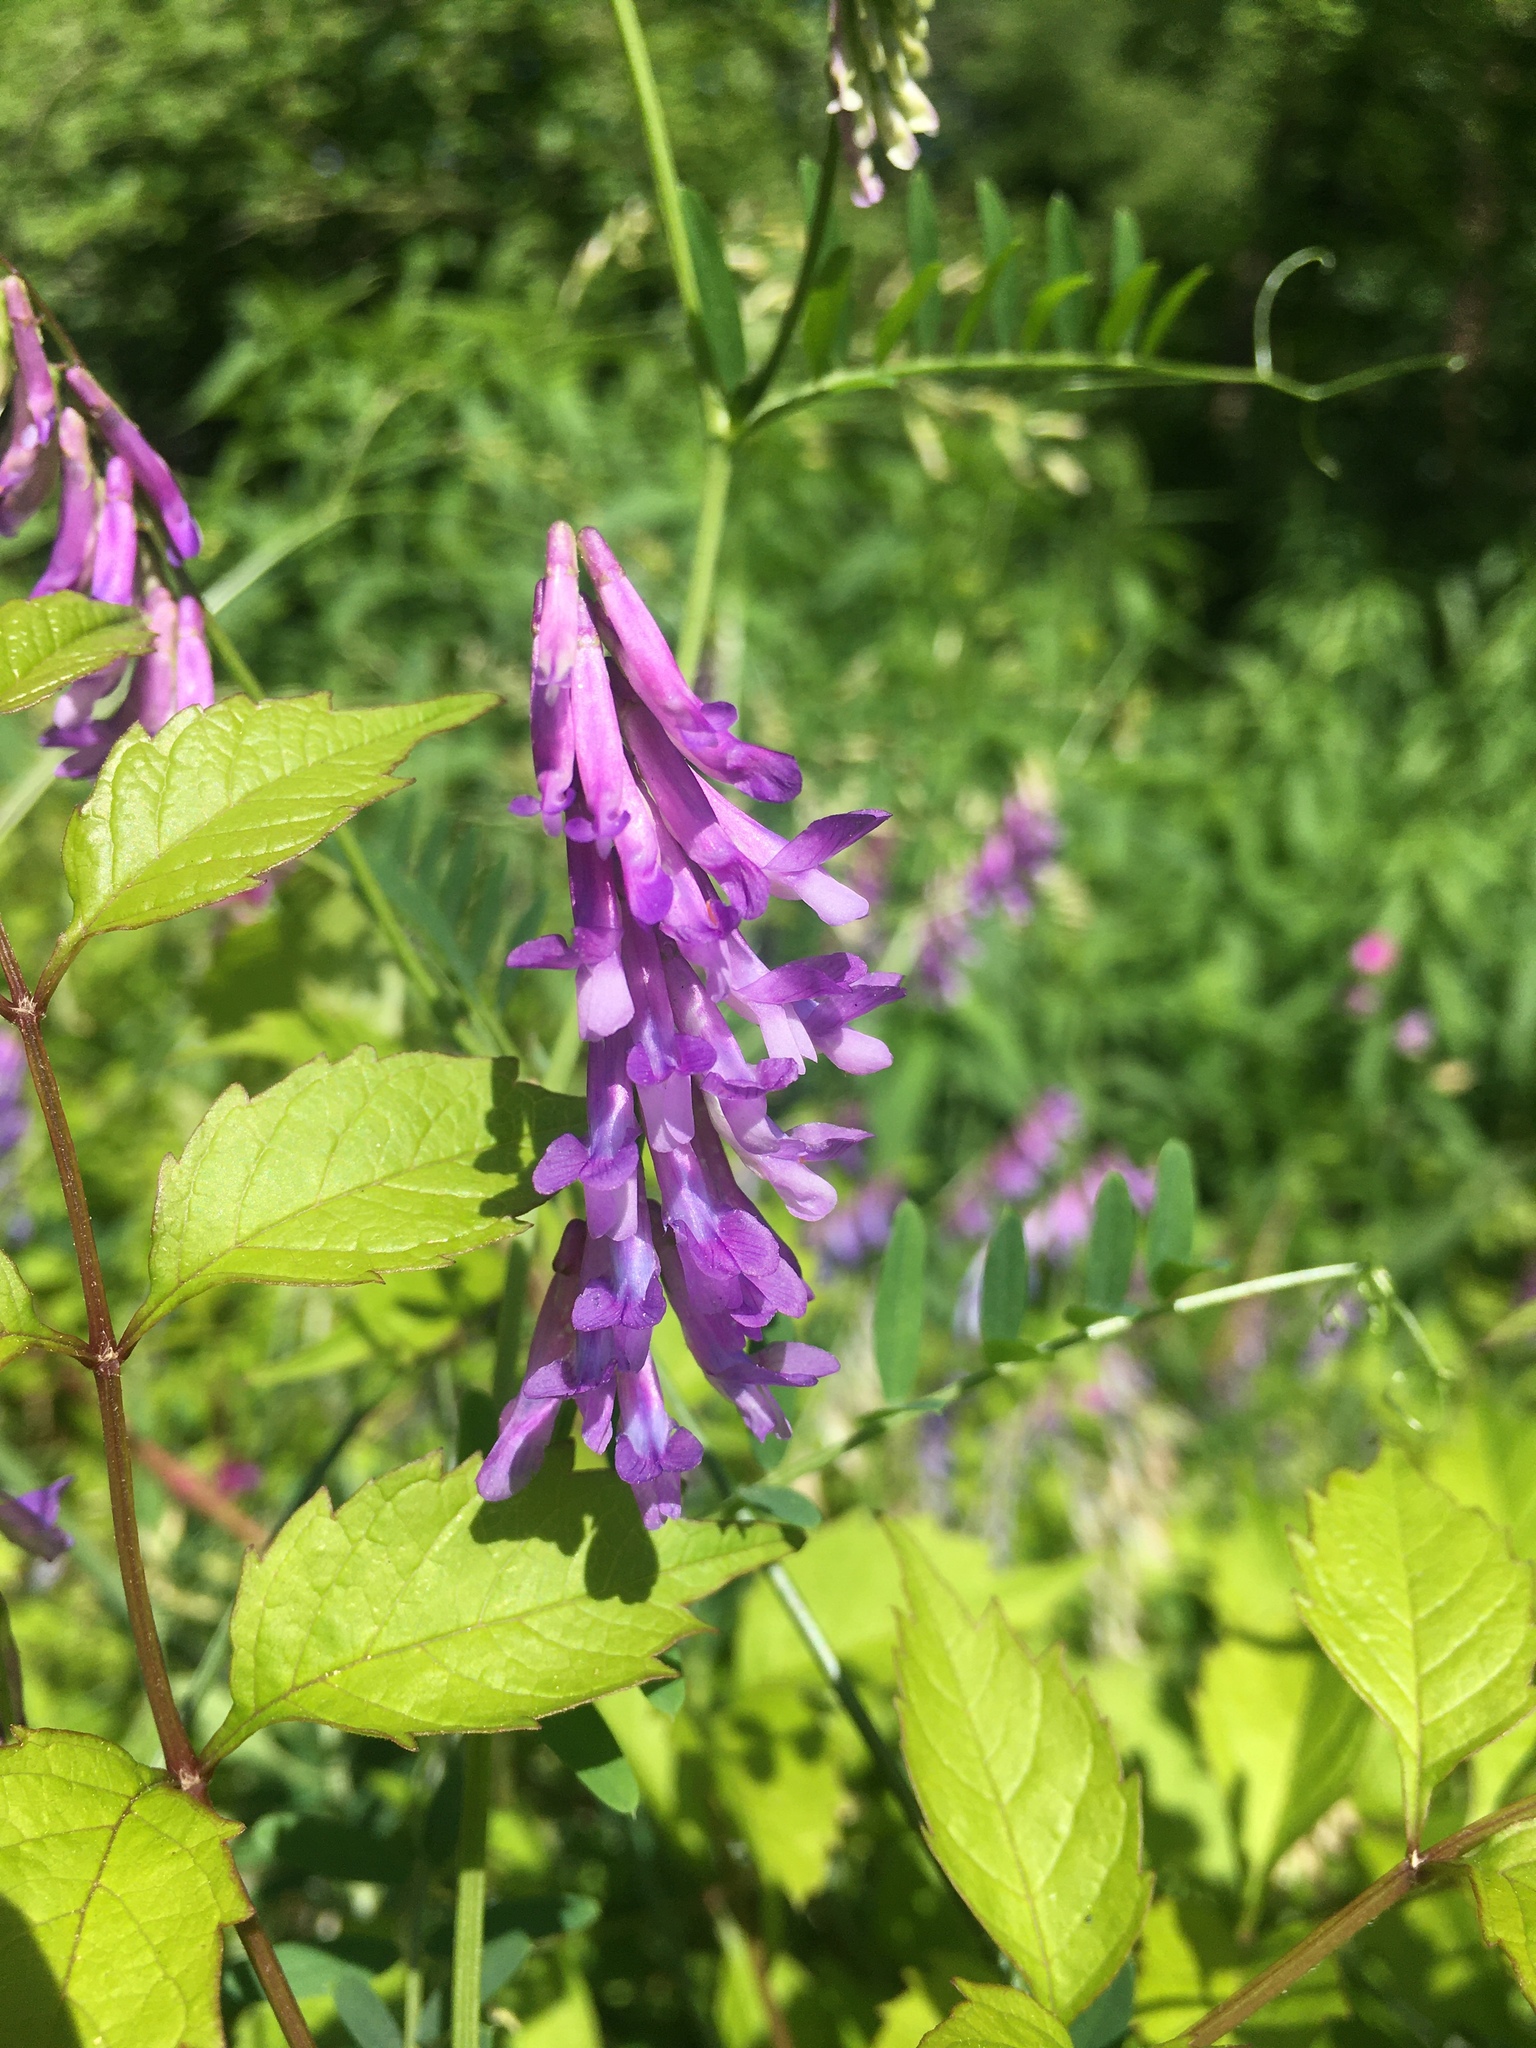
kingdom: Plantae
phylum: Tracheophyta
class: Magnoliopsida
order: Fabales
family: Fabaceae
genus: Vicia
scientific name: Vicia villosa
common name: Fodder vetch
